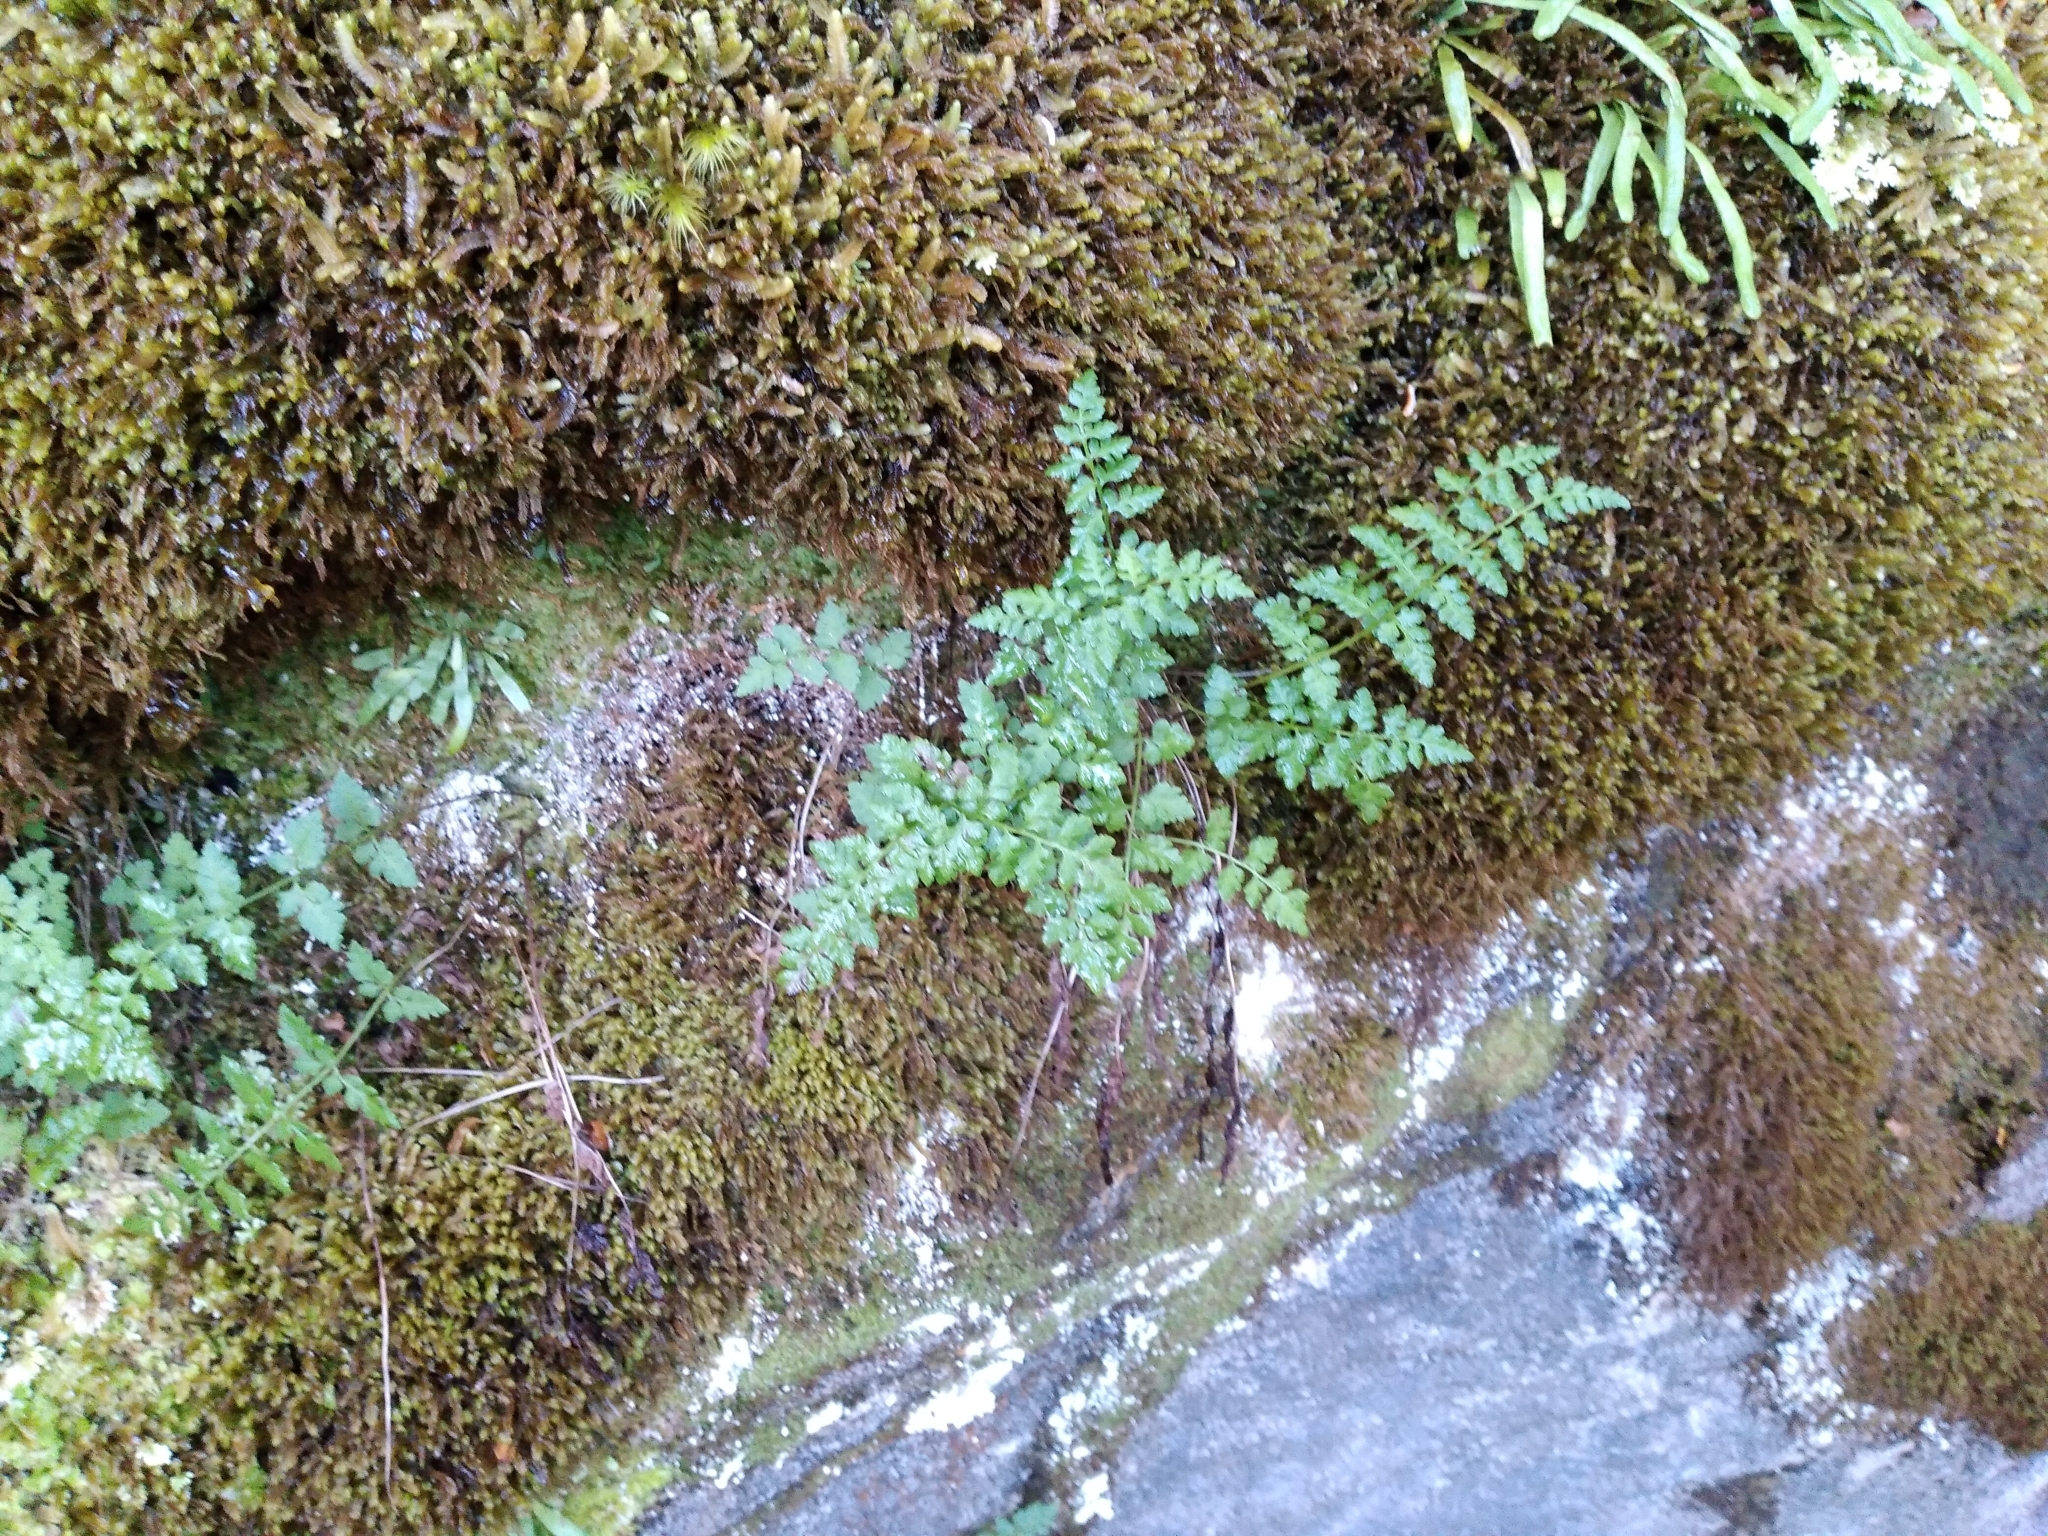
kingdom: Plantae
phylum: Tracheophyta
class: Polypodiopsida
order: Polypodiales
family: Cystopteridaceae
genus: Cystopteris
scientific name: Cystopteris tasmanica
